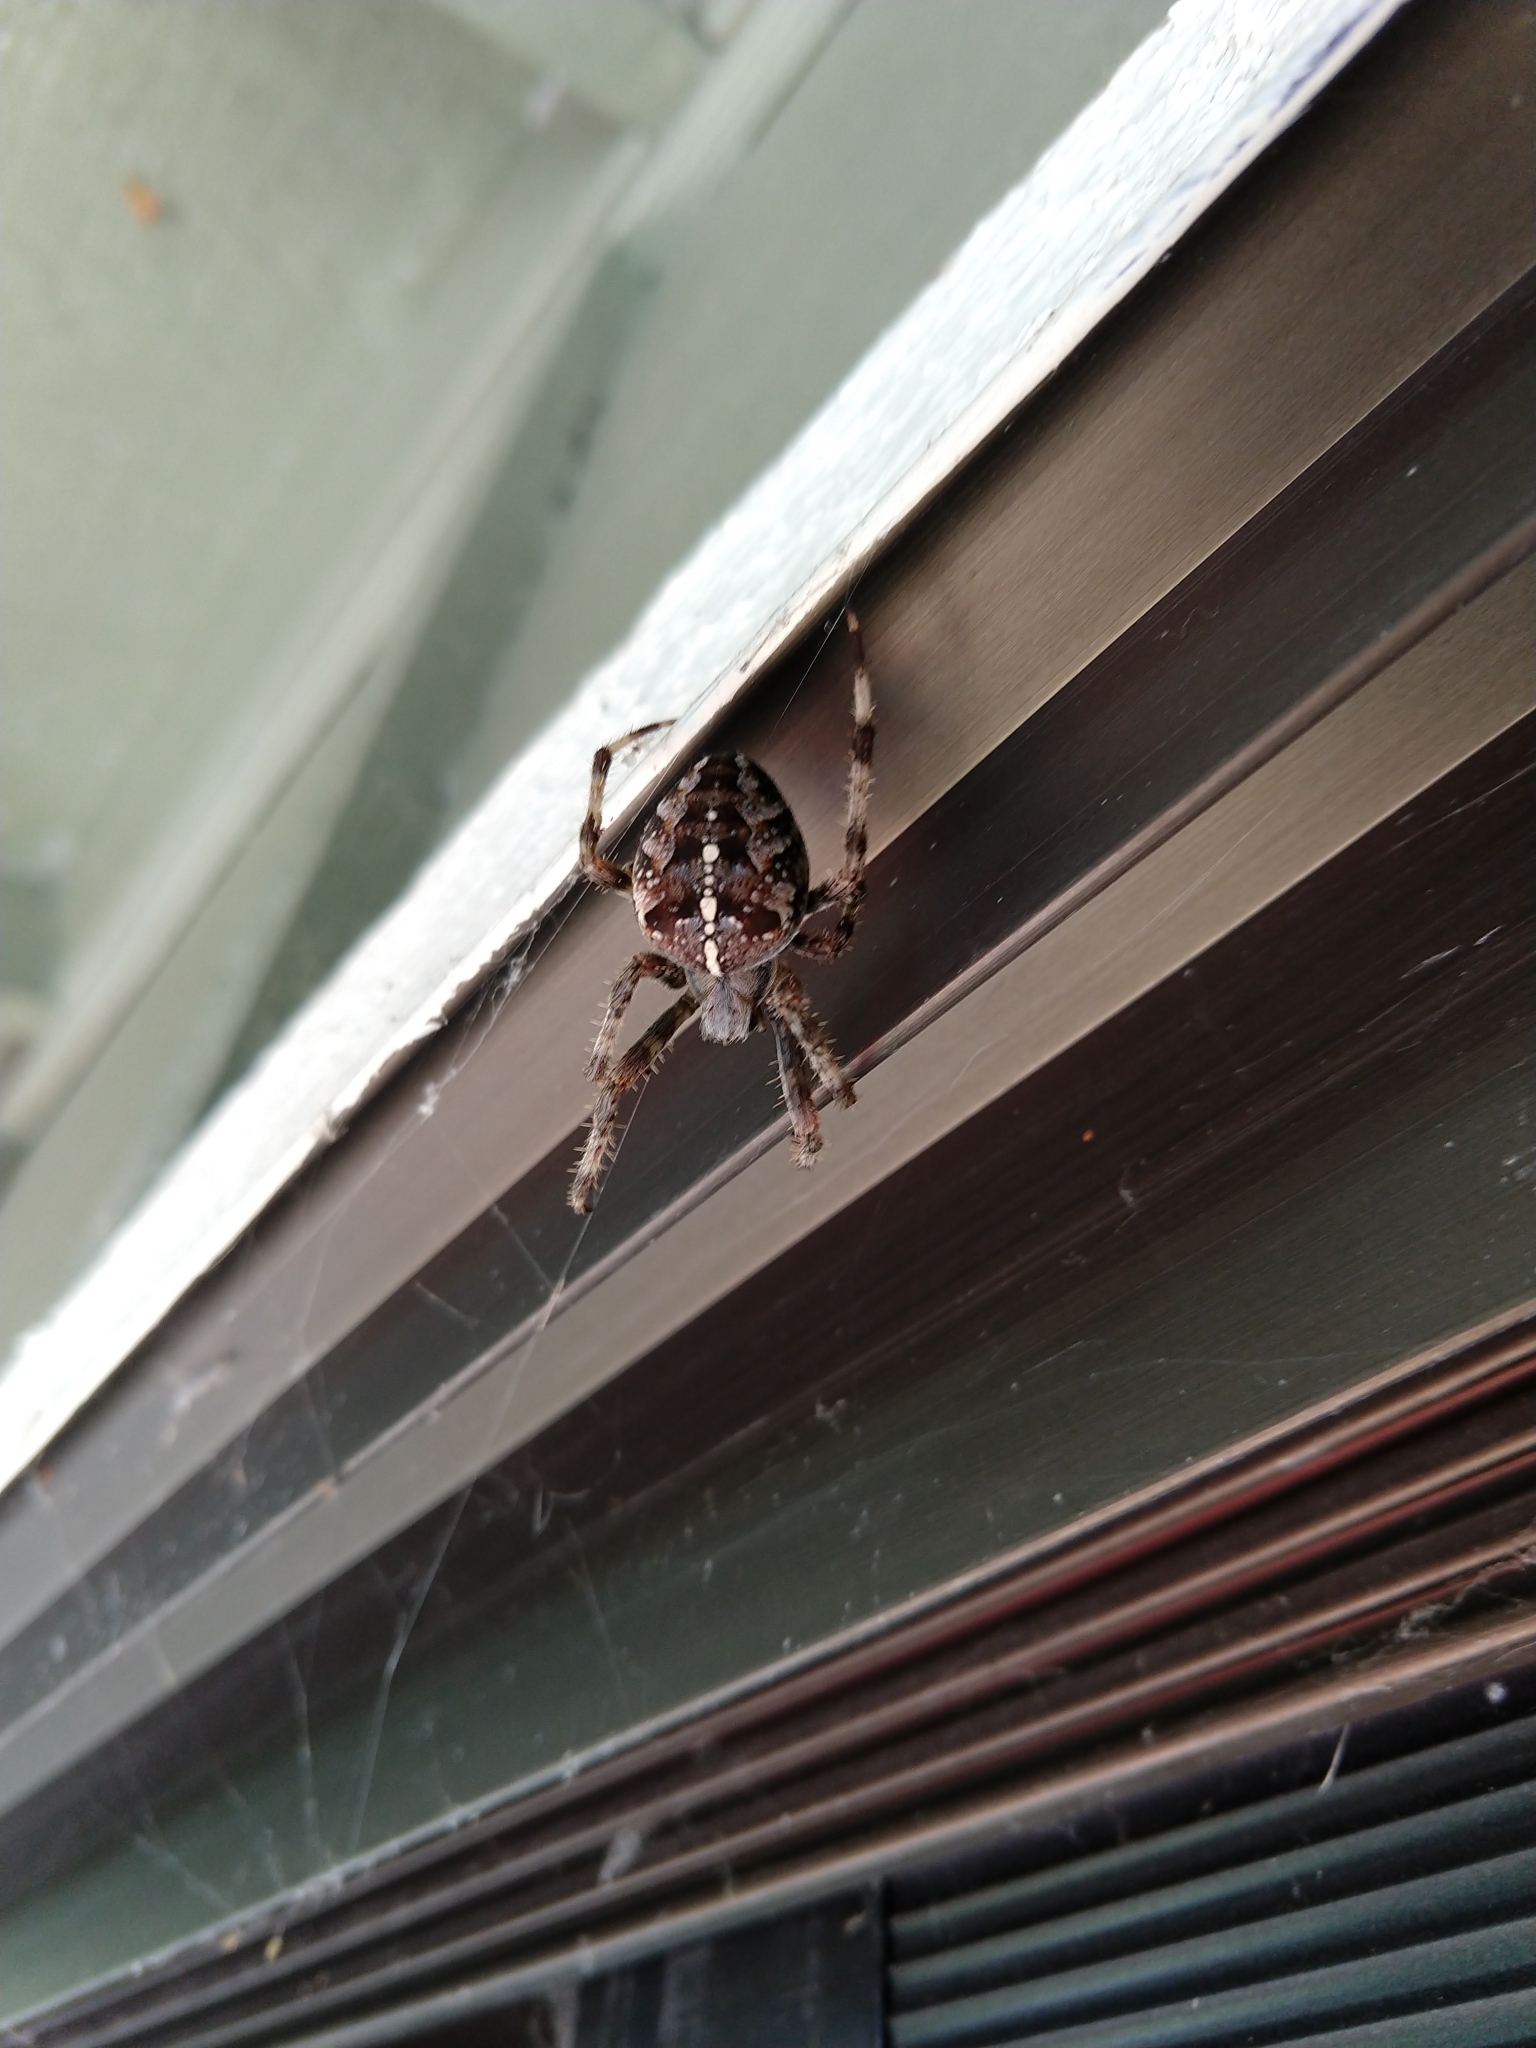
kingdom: Animalia
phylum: Arthropoda
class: Arachnida
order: Araneae
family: Araneidae
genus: Araneus
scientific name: Araneus diadematus
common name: Cross orbweaver
